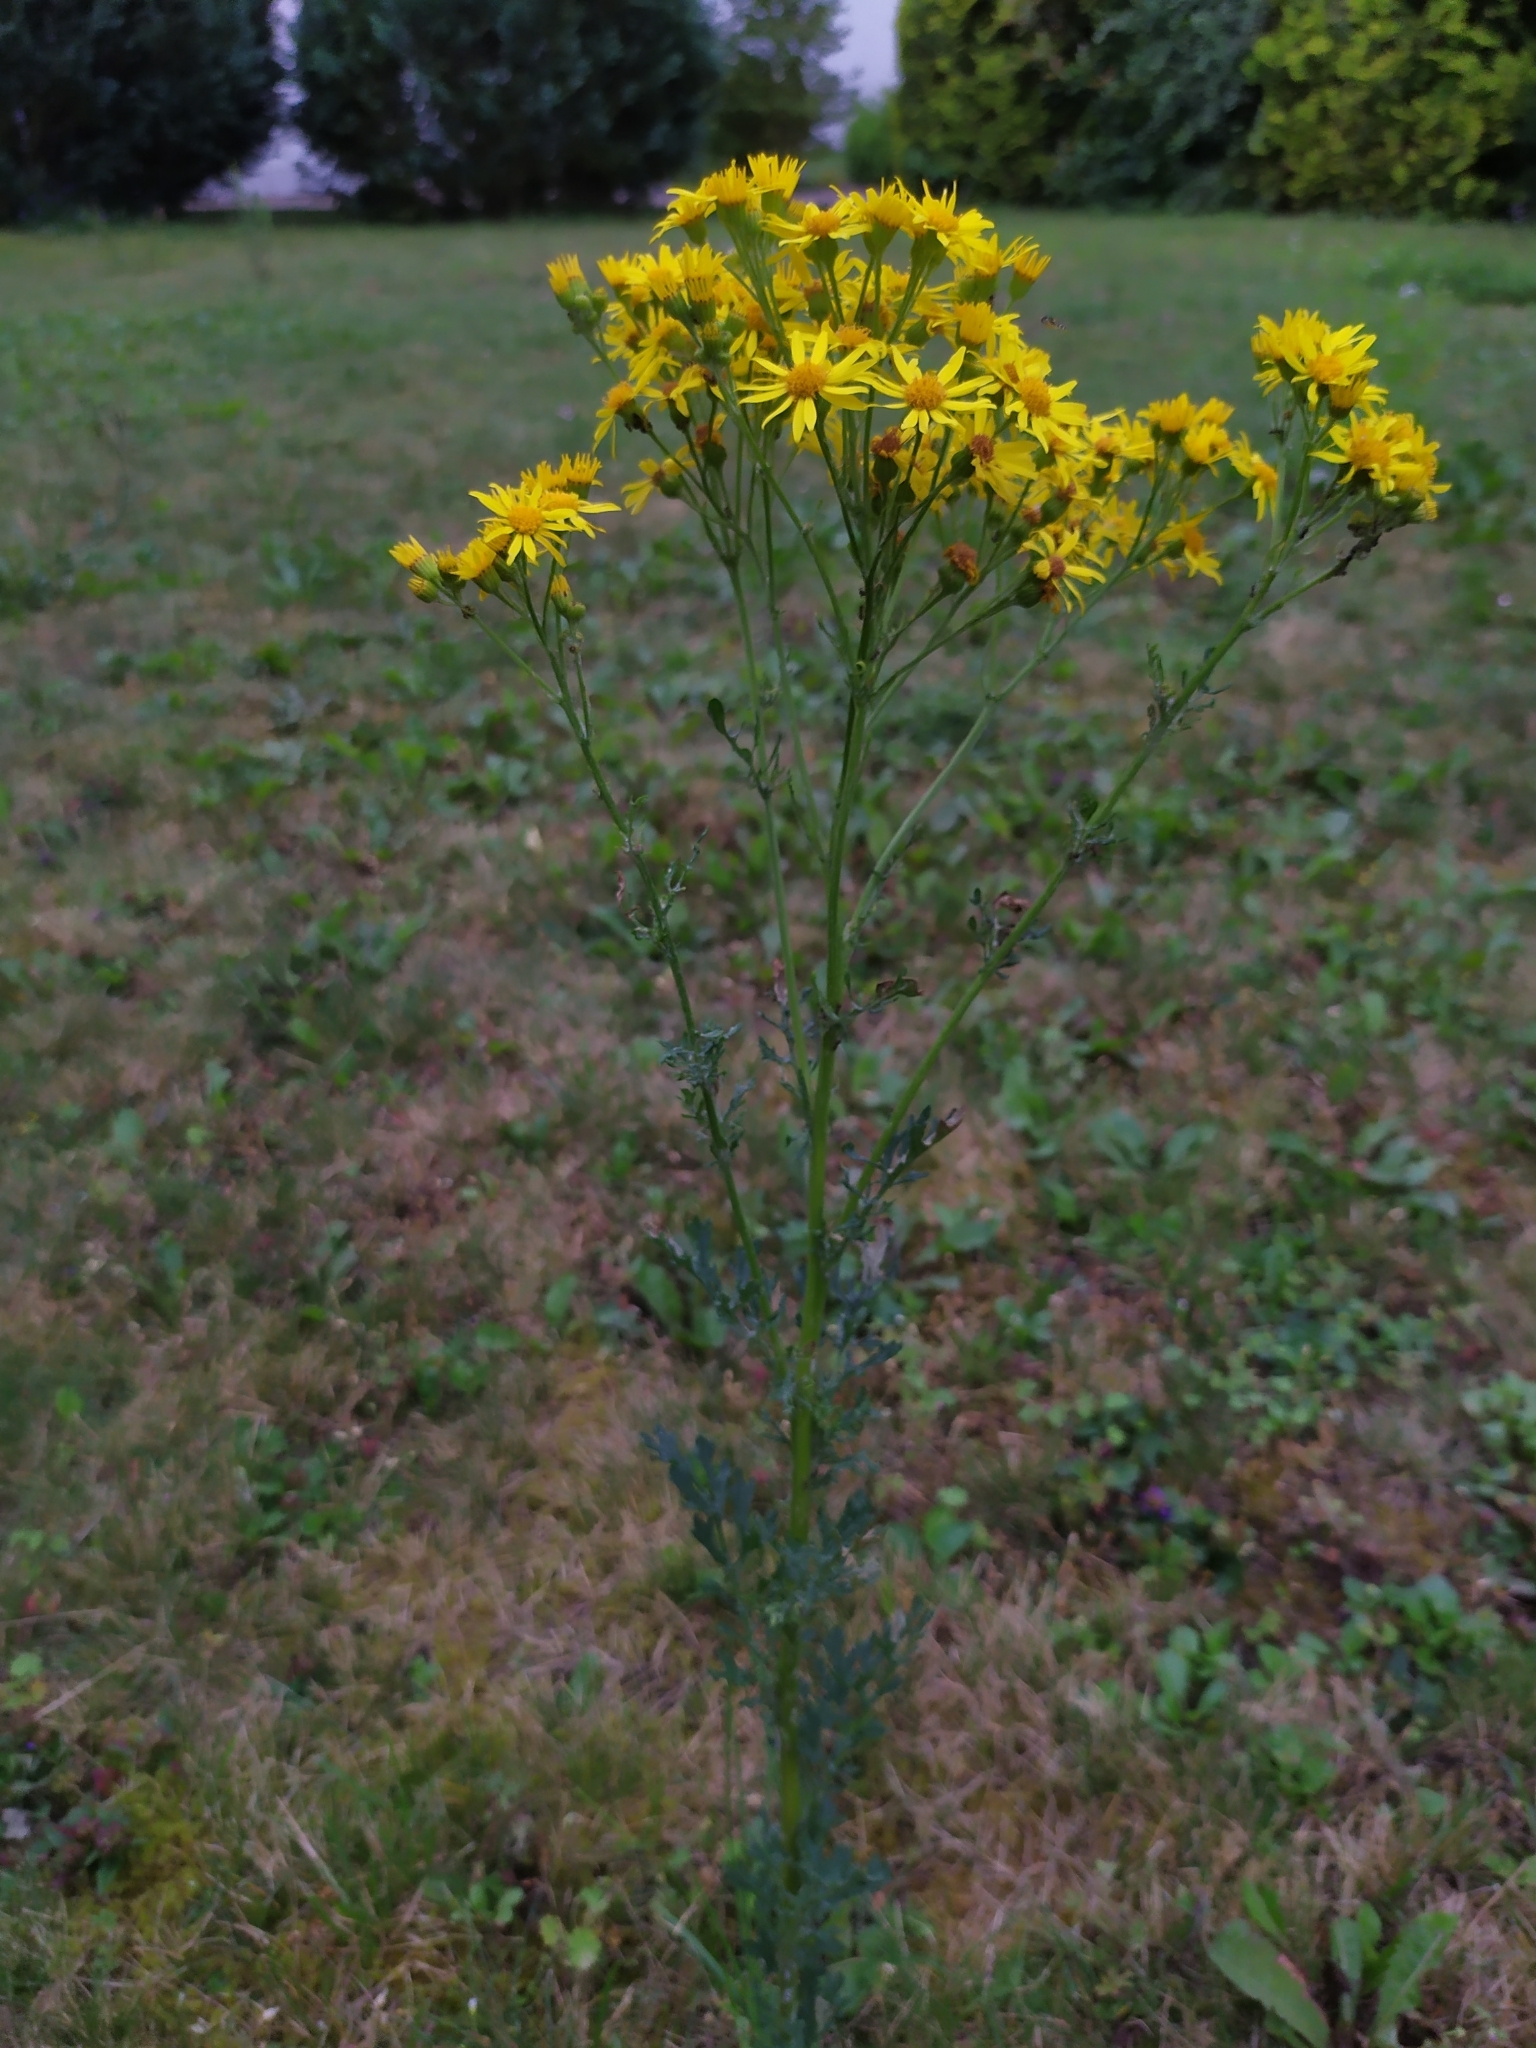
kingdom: Plantae
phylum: Tracheophyta
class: Magnoliopsida
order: Asterales
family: Asteraceae
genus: Jacobaea
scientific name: Jacobaea vulgaris
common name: Stinking willie
